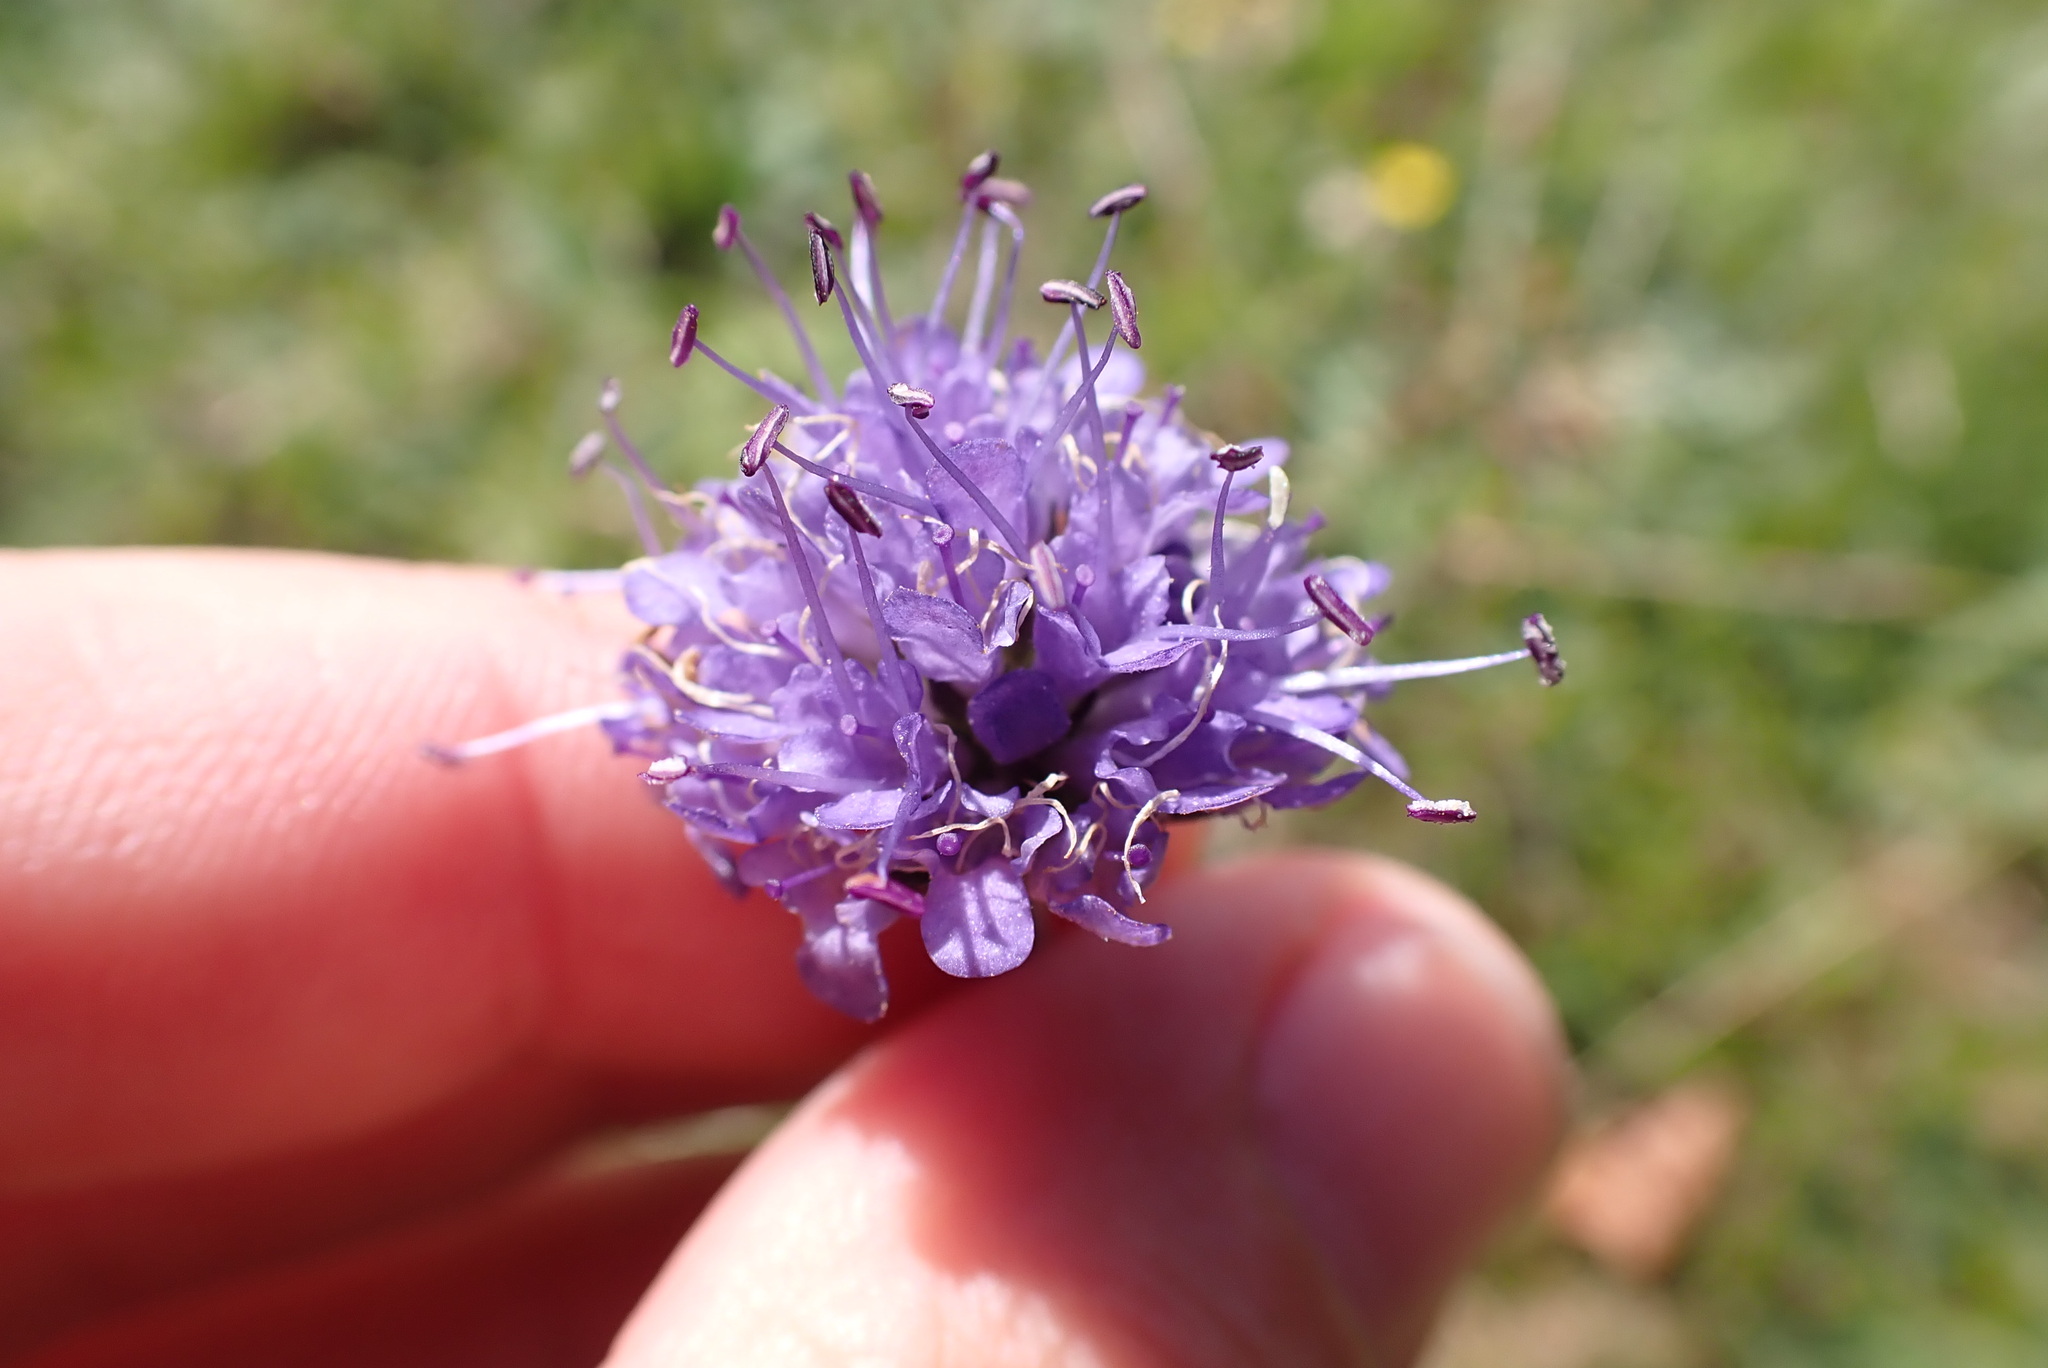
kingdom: Plantae
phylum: Tracheophyta
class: Magnoliopsida
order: Dipsacales
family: Caprifoliaceae
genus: Succisa
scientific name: Succisa pratensis
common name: Devil's-bit
